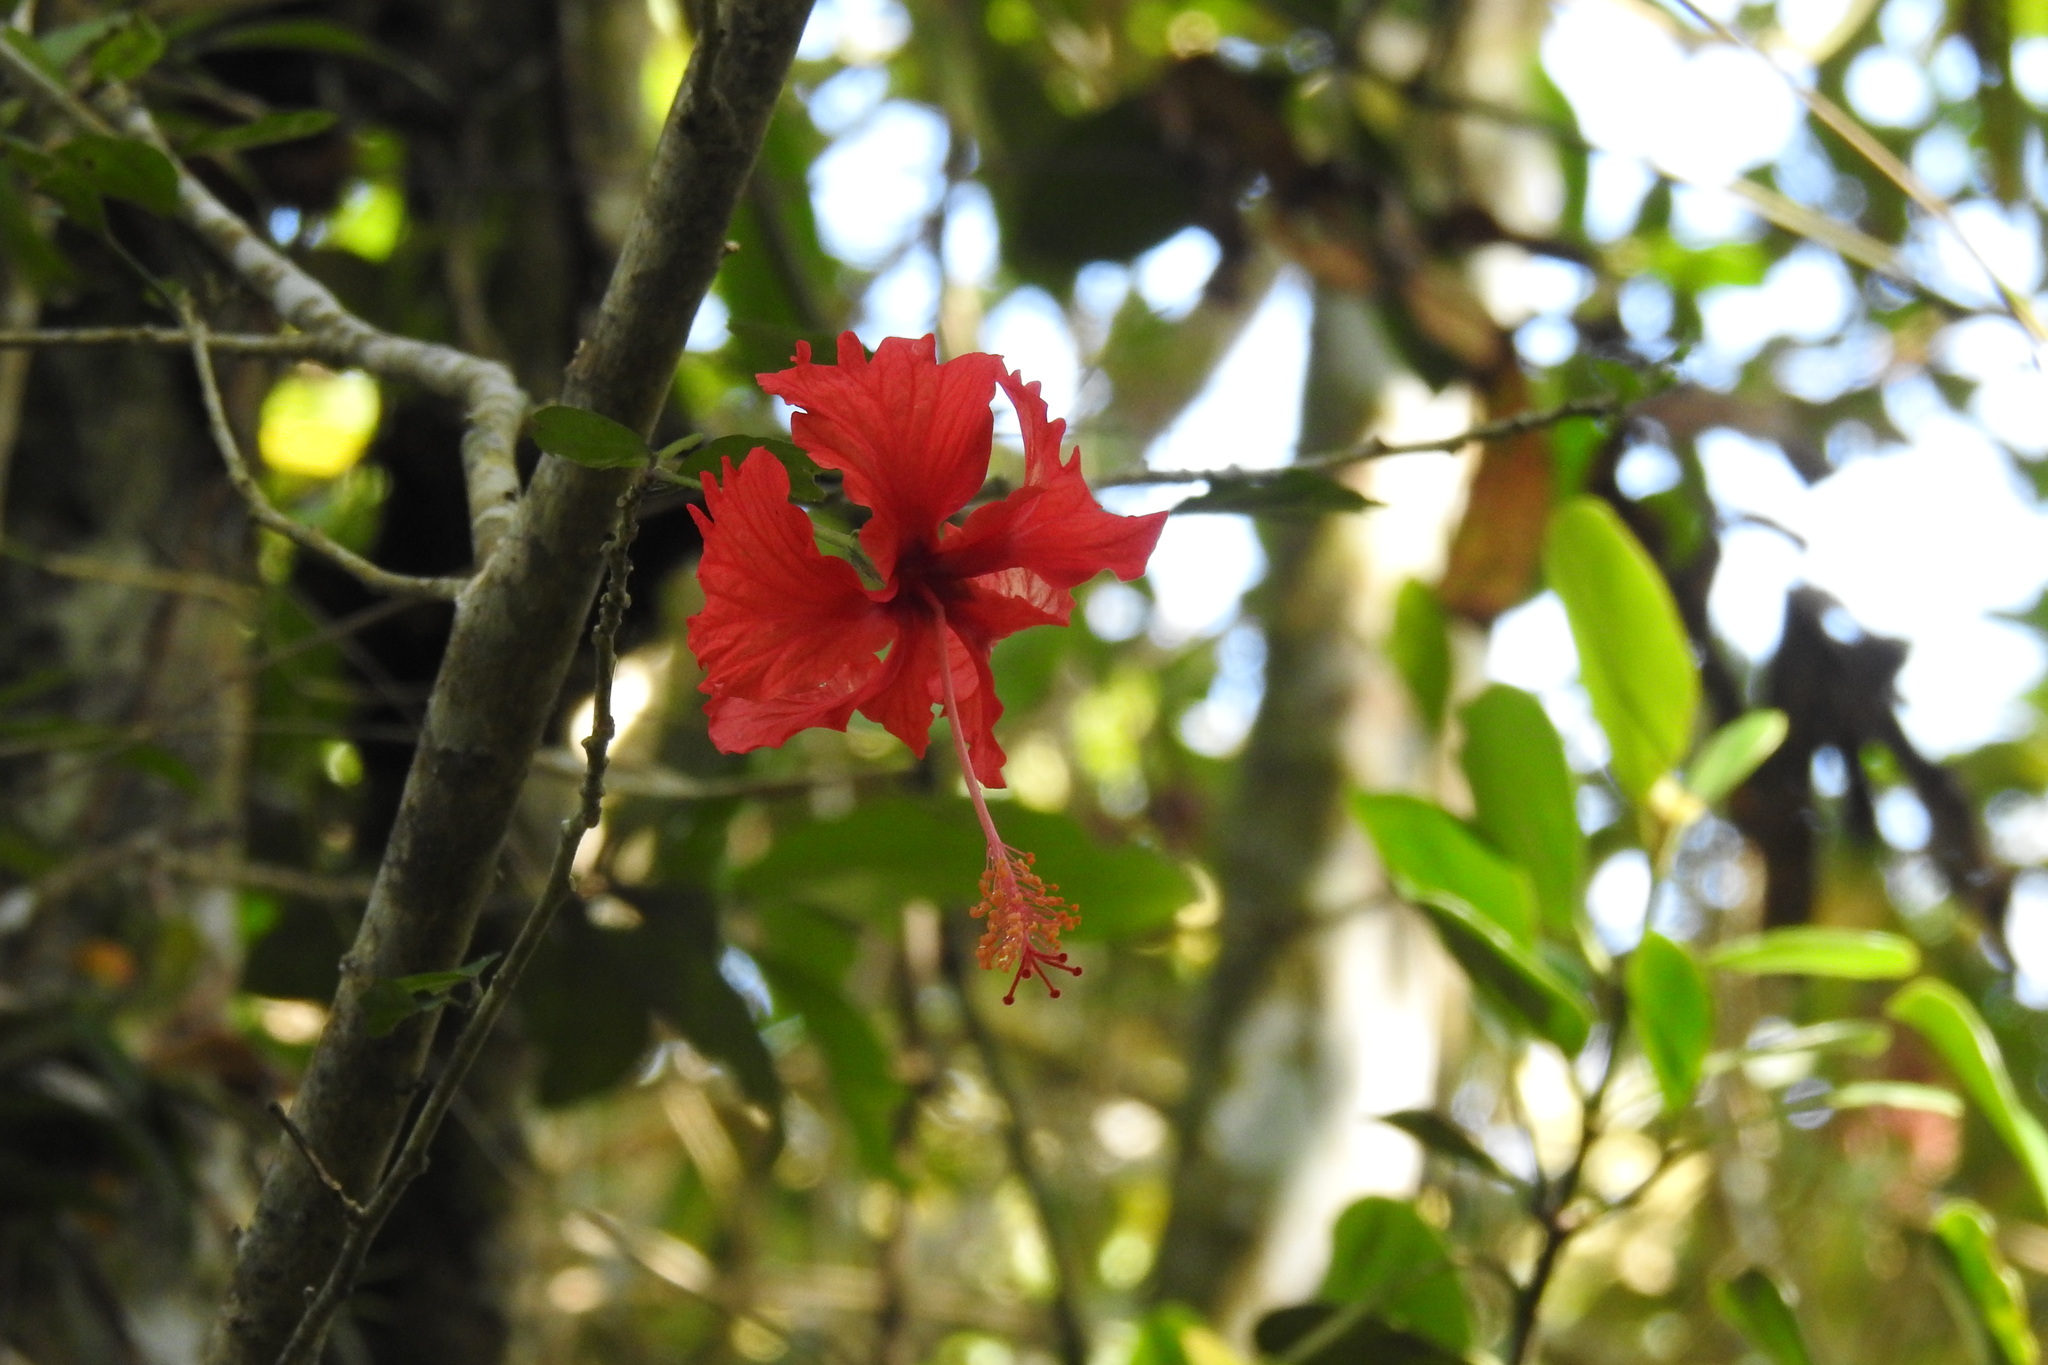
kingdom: Plantae
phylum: Tracheophyta
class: Magnoliopsida
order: Malvales
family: Malvaceae
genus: Hibiscus
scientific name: Hibiscus archeri
